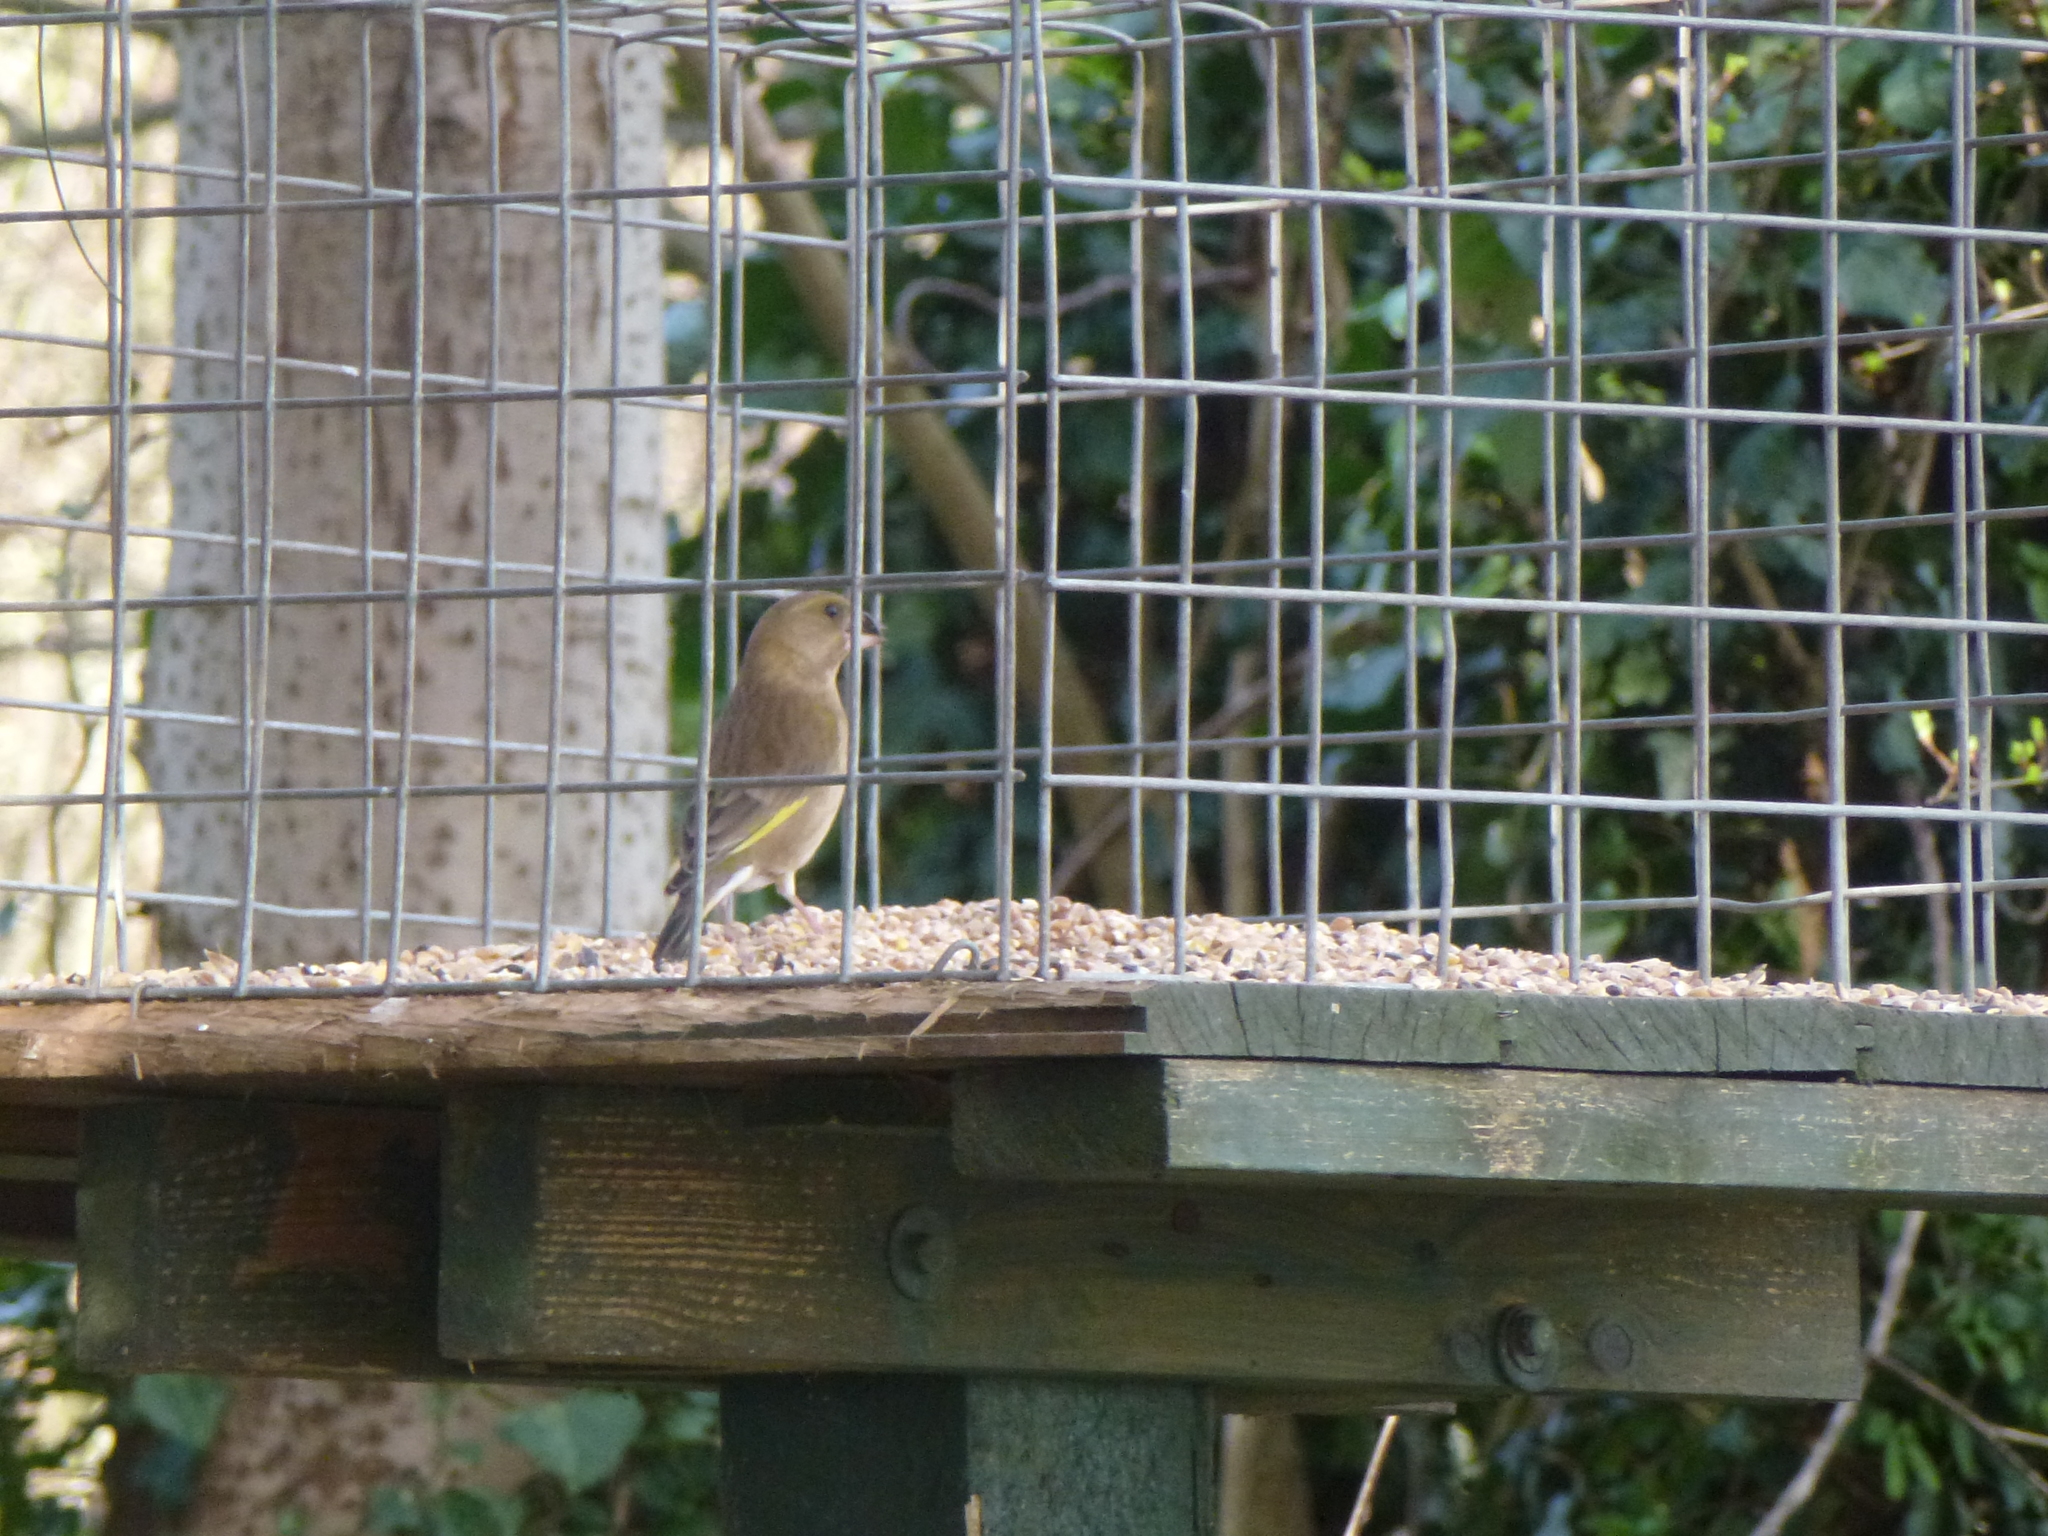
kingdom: Plantae
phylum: Tracheophyta
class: Liliopsida
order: Poales
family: Poaceae
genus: Chloris
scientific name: Chloris chloris
